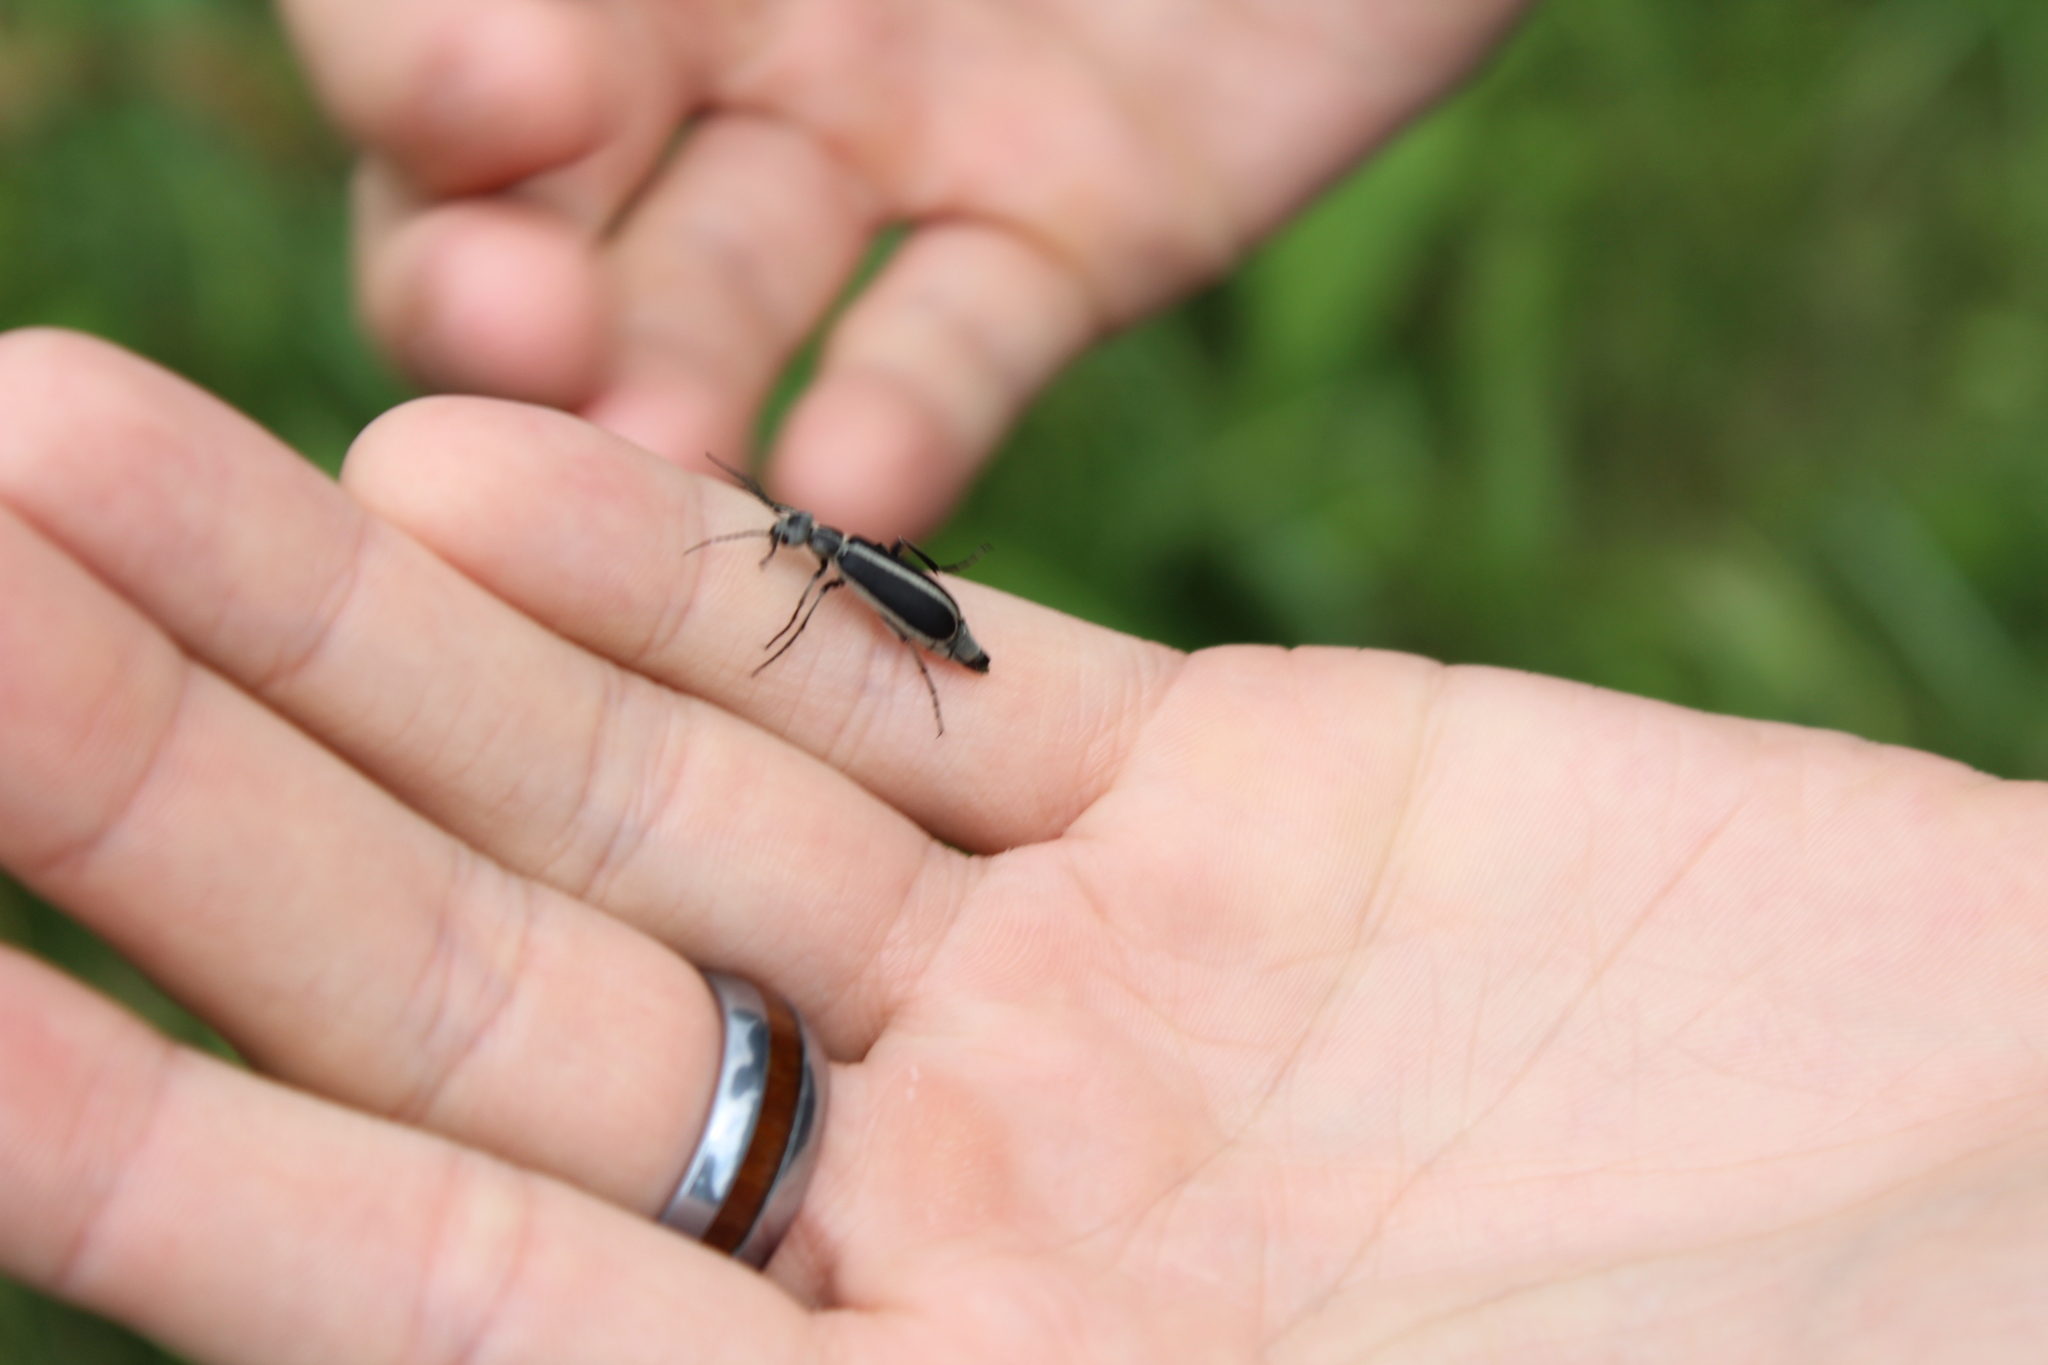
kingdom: Animalia
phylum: Arthropoda
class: Insecta
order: Coleoptera
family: Meloidae
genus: Epicauta
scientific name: Epicauta funebris
